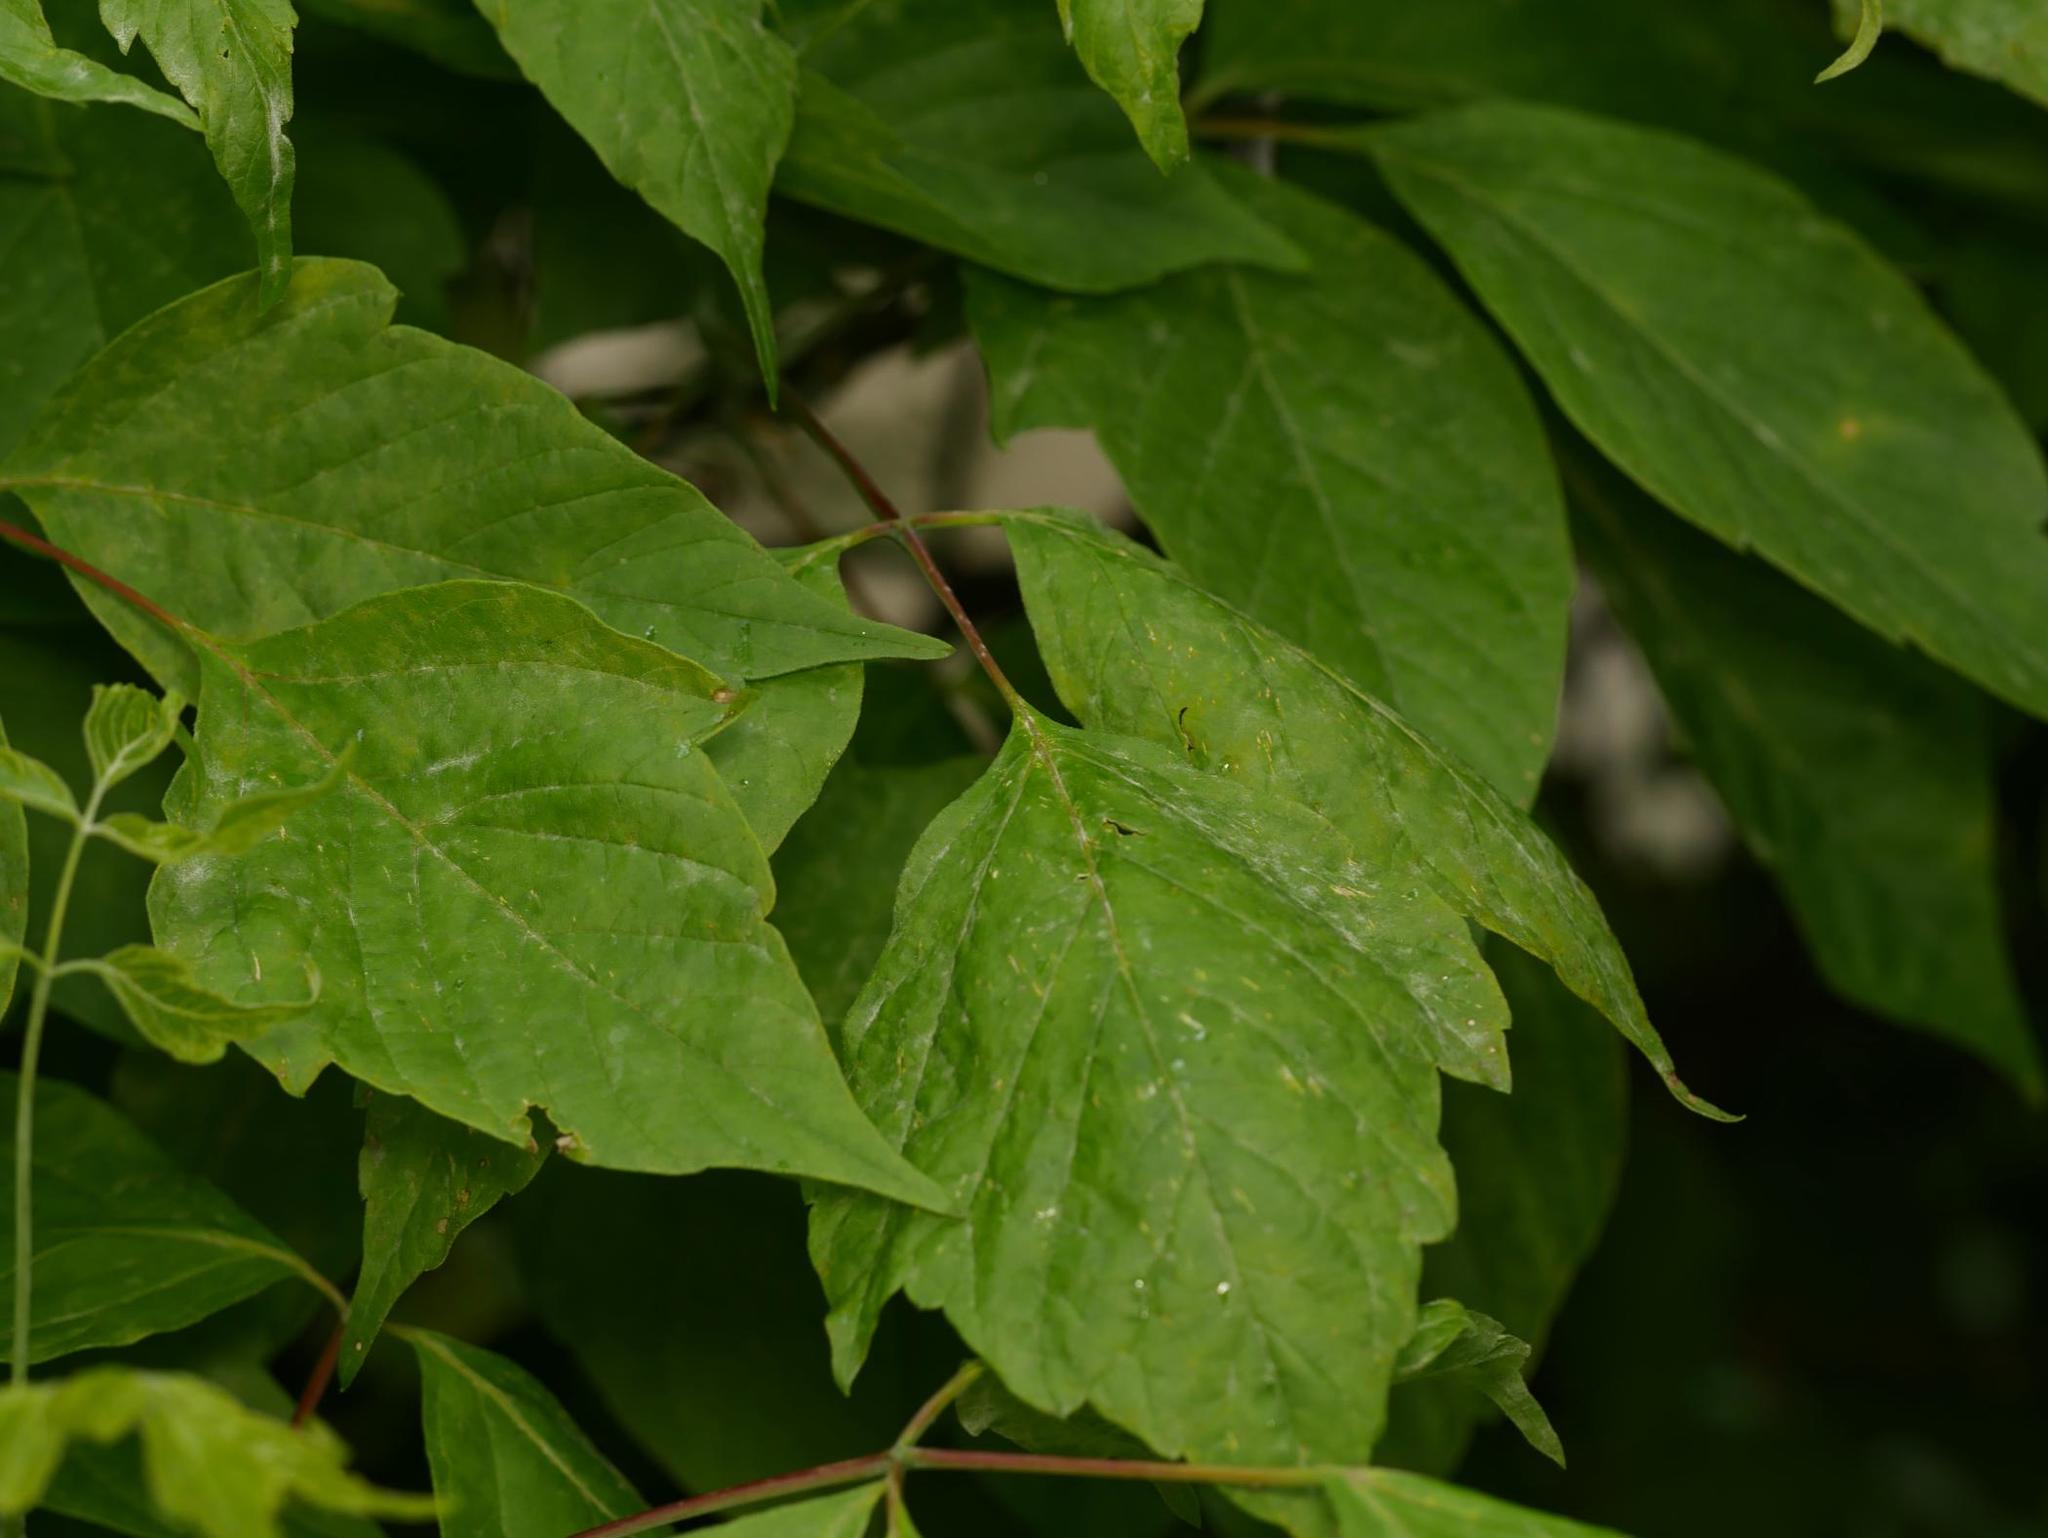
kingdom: Plantae
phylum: Tracheophyta
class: Magnoliopsida
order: Sapindales
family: Sapindaceae
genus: Acer
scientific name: Acer negundo
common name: Ashleaf maple
